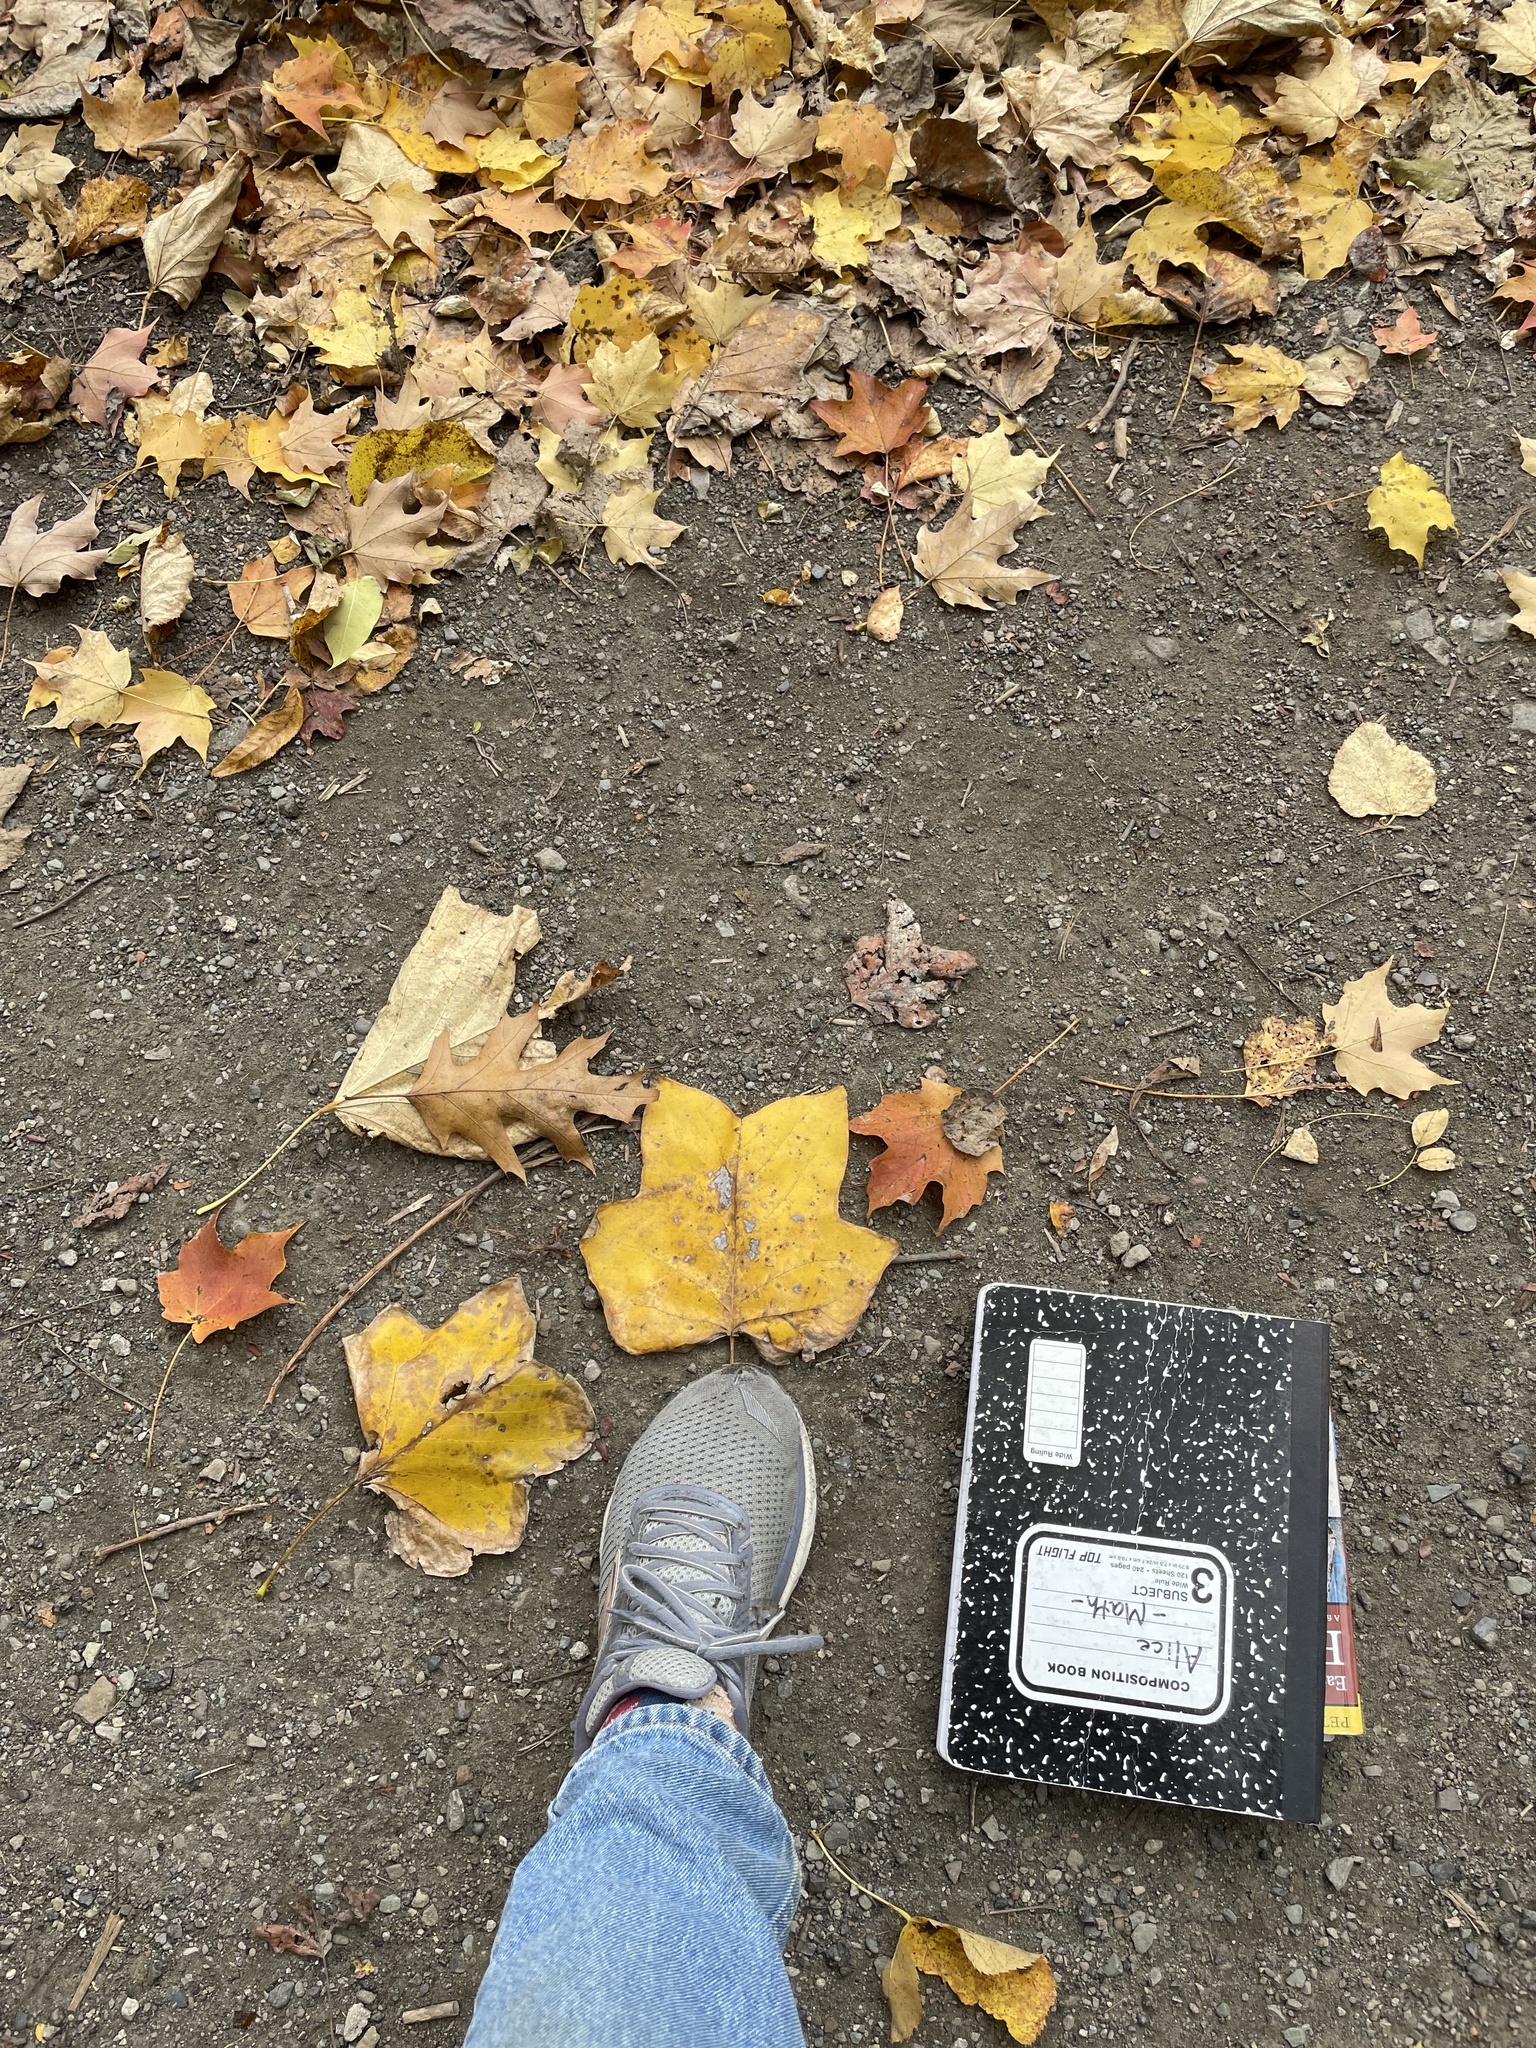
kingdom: Plantae
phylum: Tracheophyta
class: Magnoliopsida
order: Magnoliales
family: Magnoliaceae
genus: Liriodendron
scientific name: Liriodendron tulipifera
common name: Tulip tree
